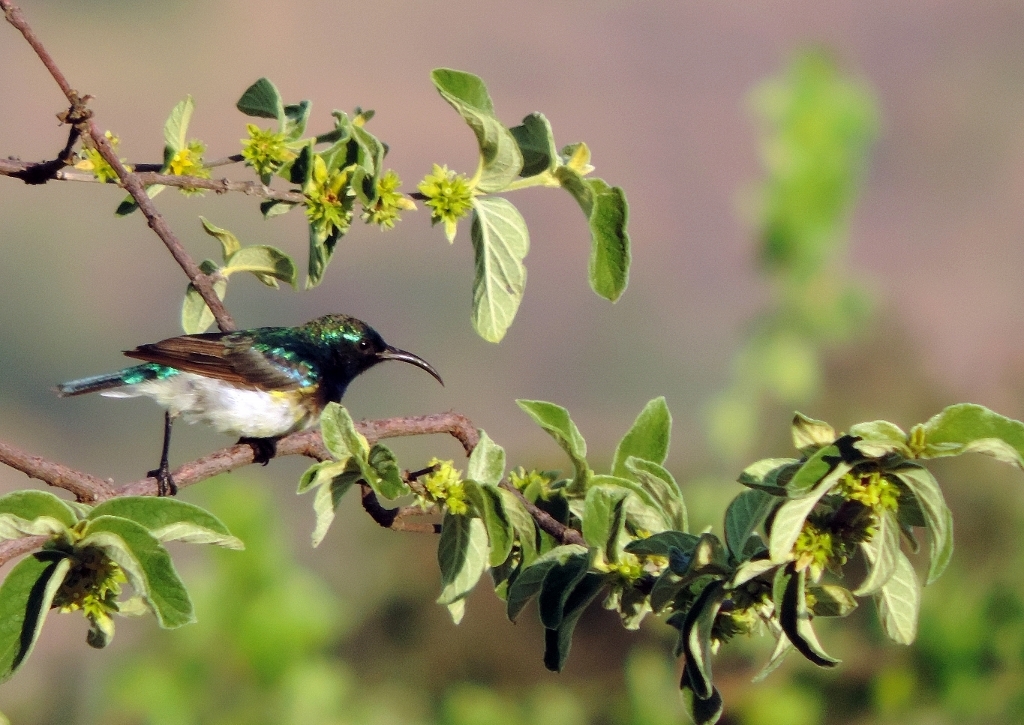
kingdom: Animalia
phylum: Chordata
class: Aves
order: Passeriformes
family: Nectariniidae
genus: Cinnyris
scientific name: Cinnyris talatala
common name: White-bellied sunbird
